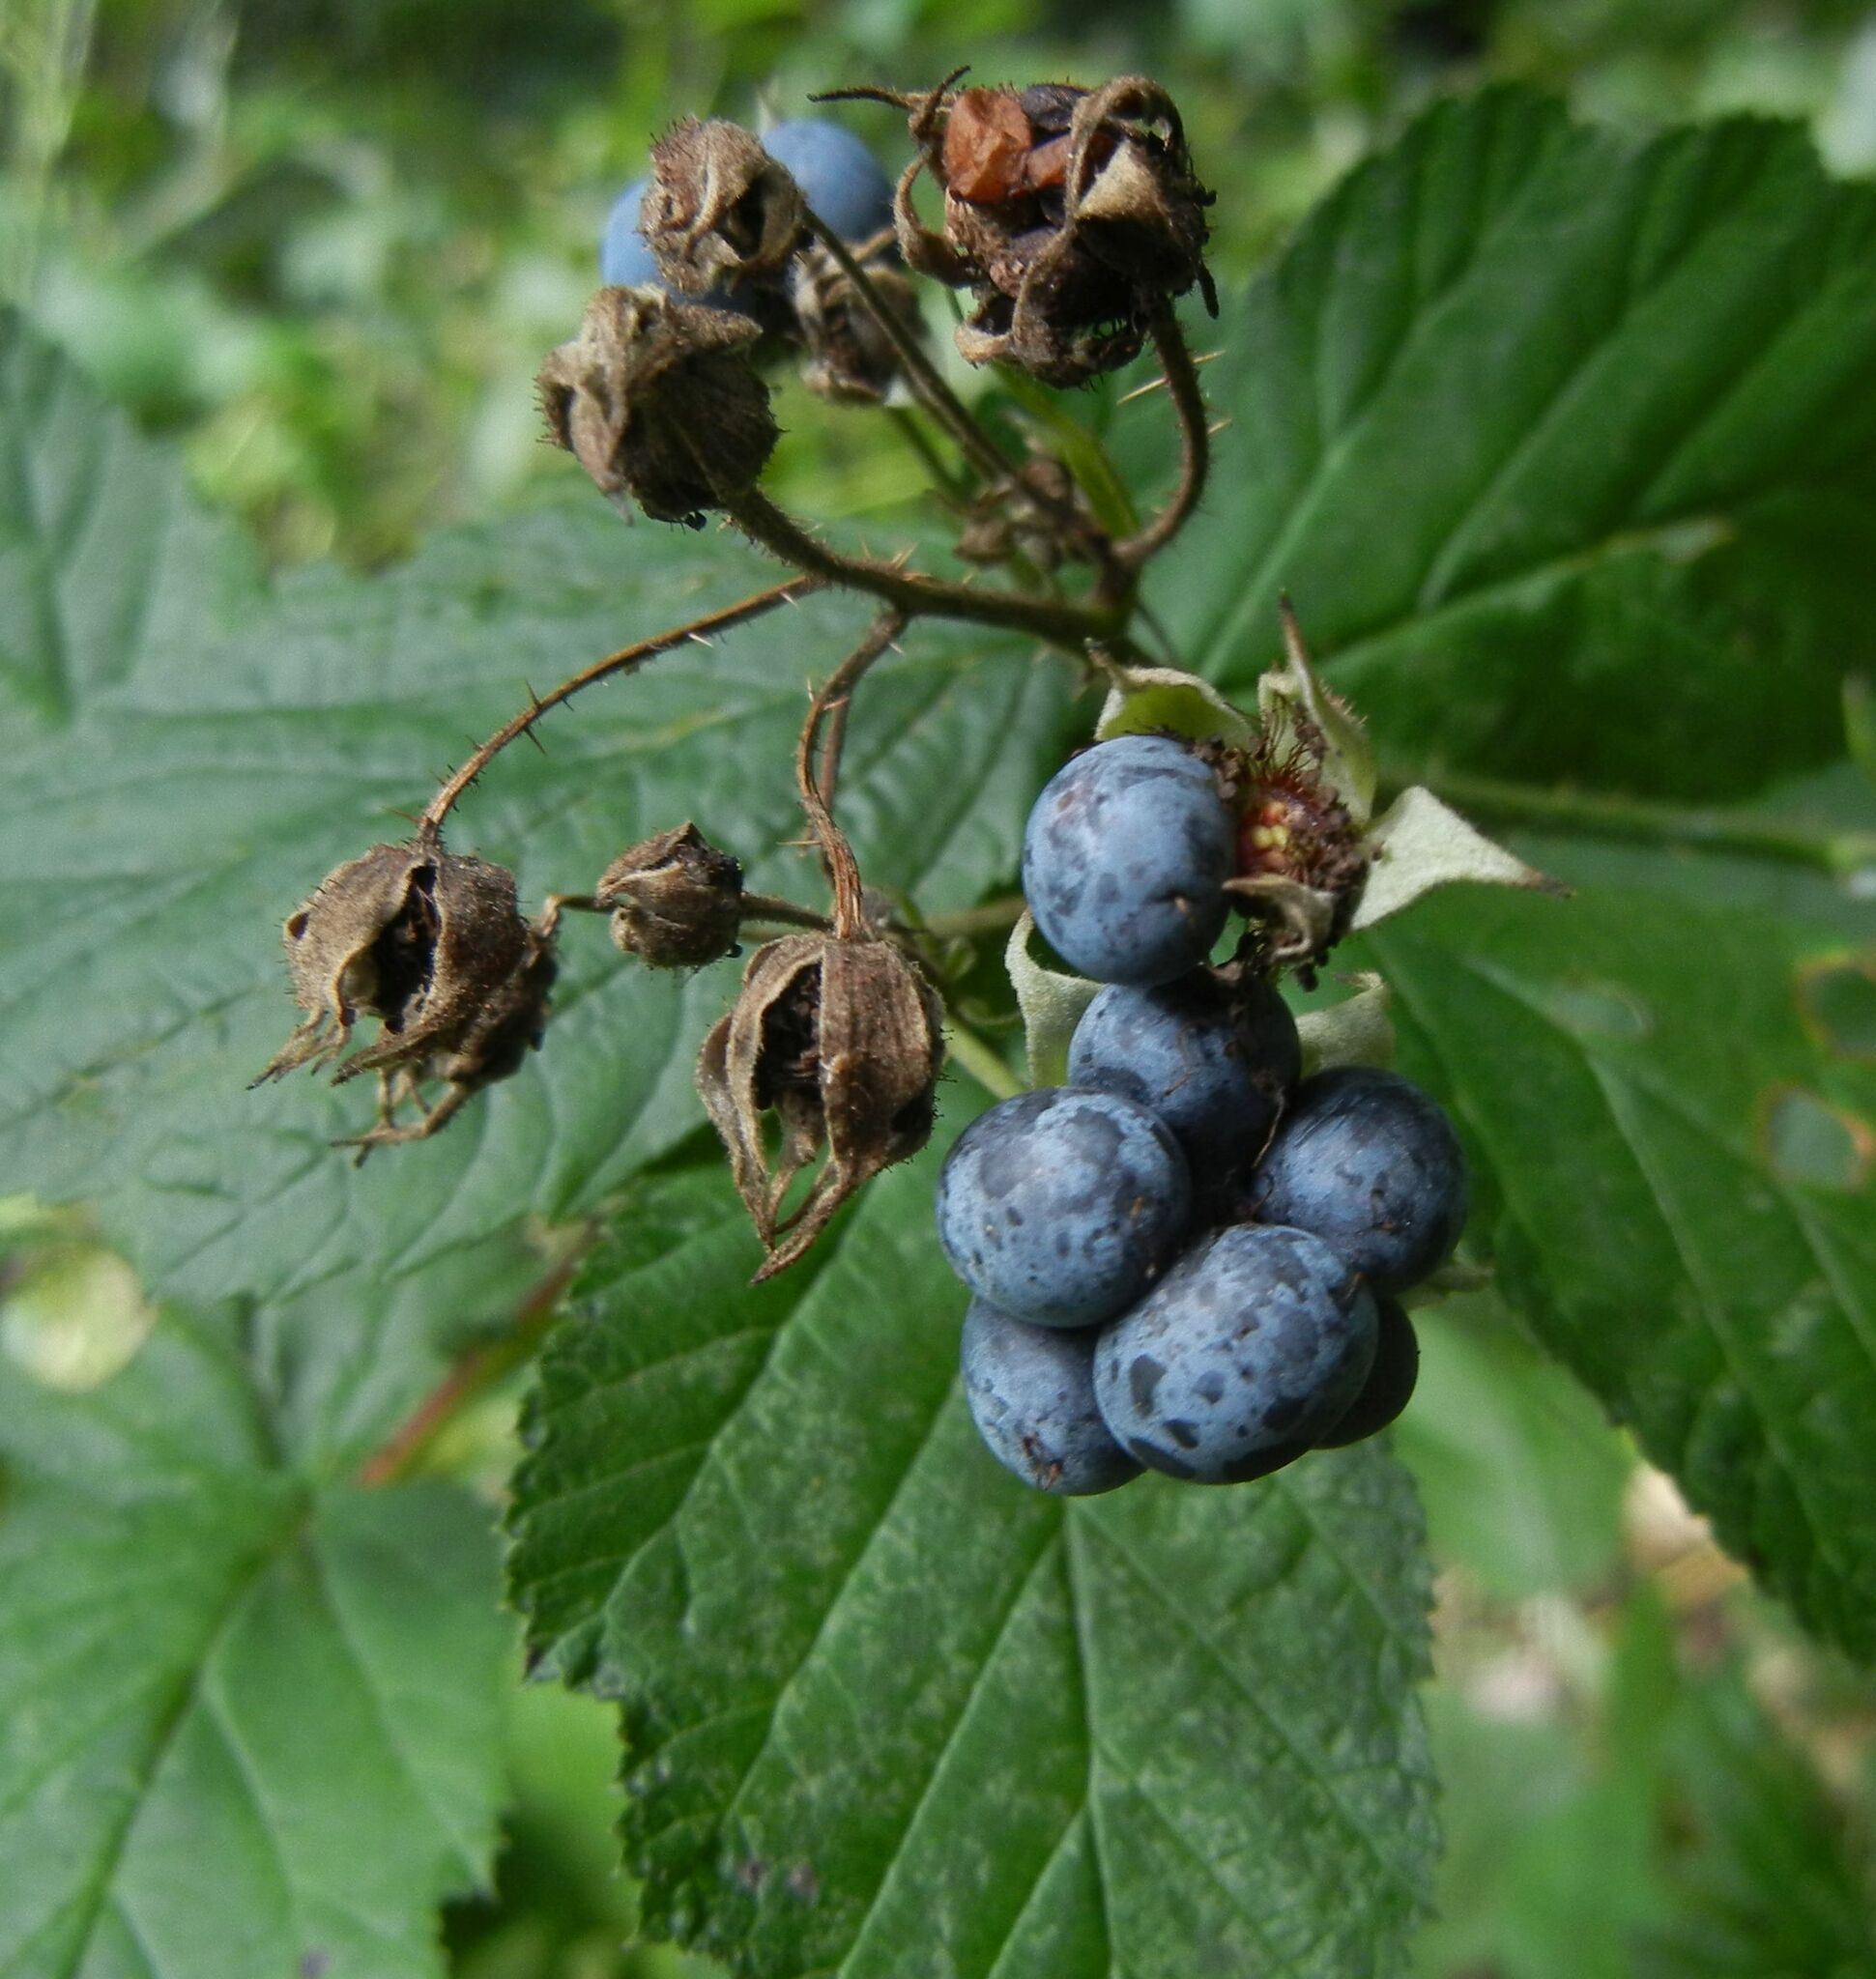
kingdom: Plantae
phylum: Tracheophyta
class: Magnoliopsida
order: Rosales
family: Rosaceae
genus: Rubus
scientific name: Rubus caesius
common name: Dewberry
